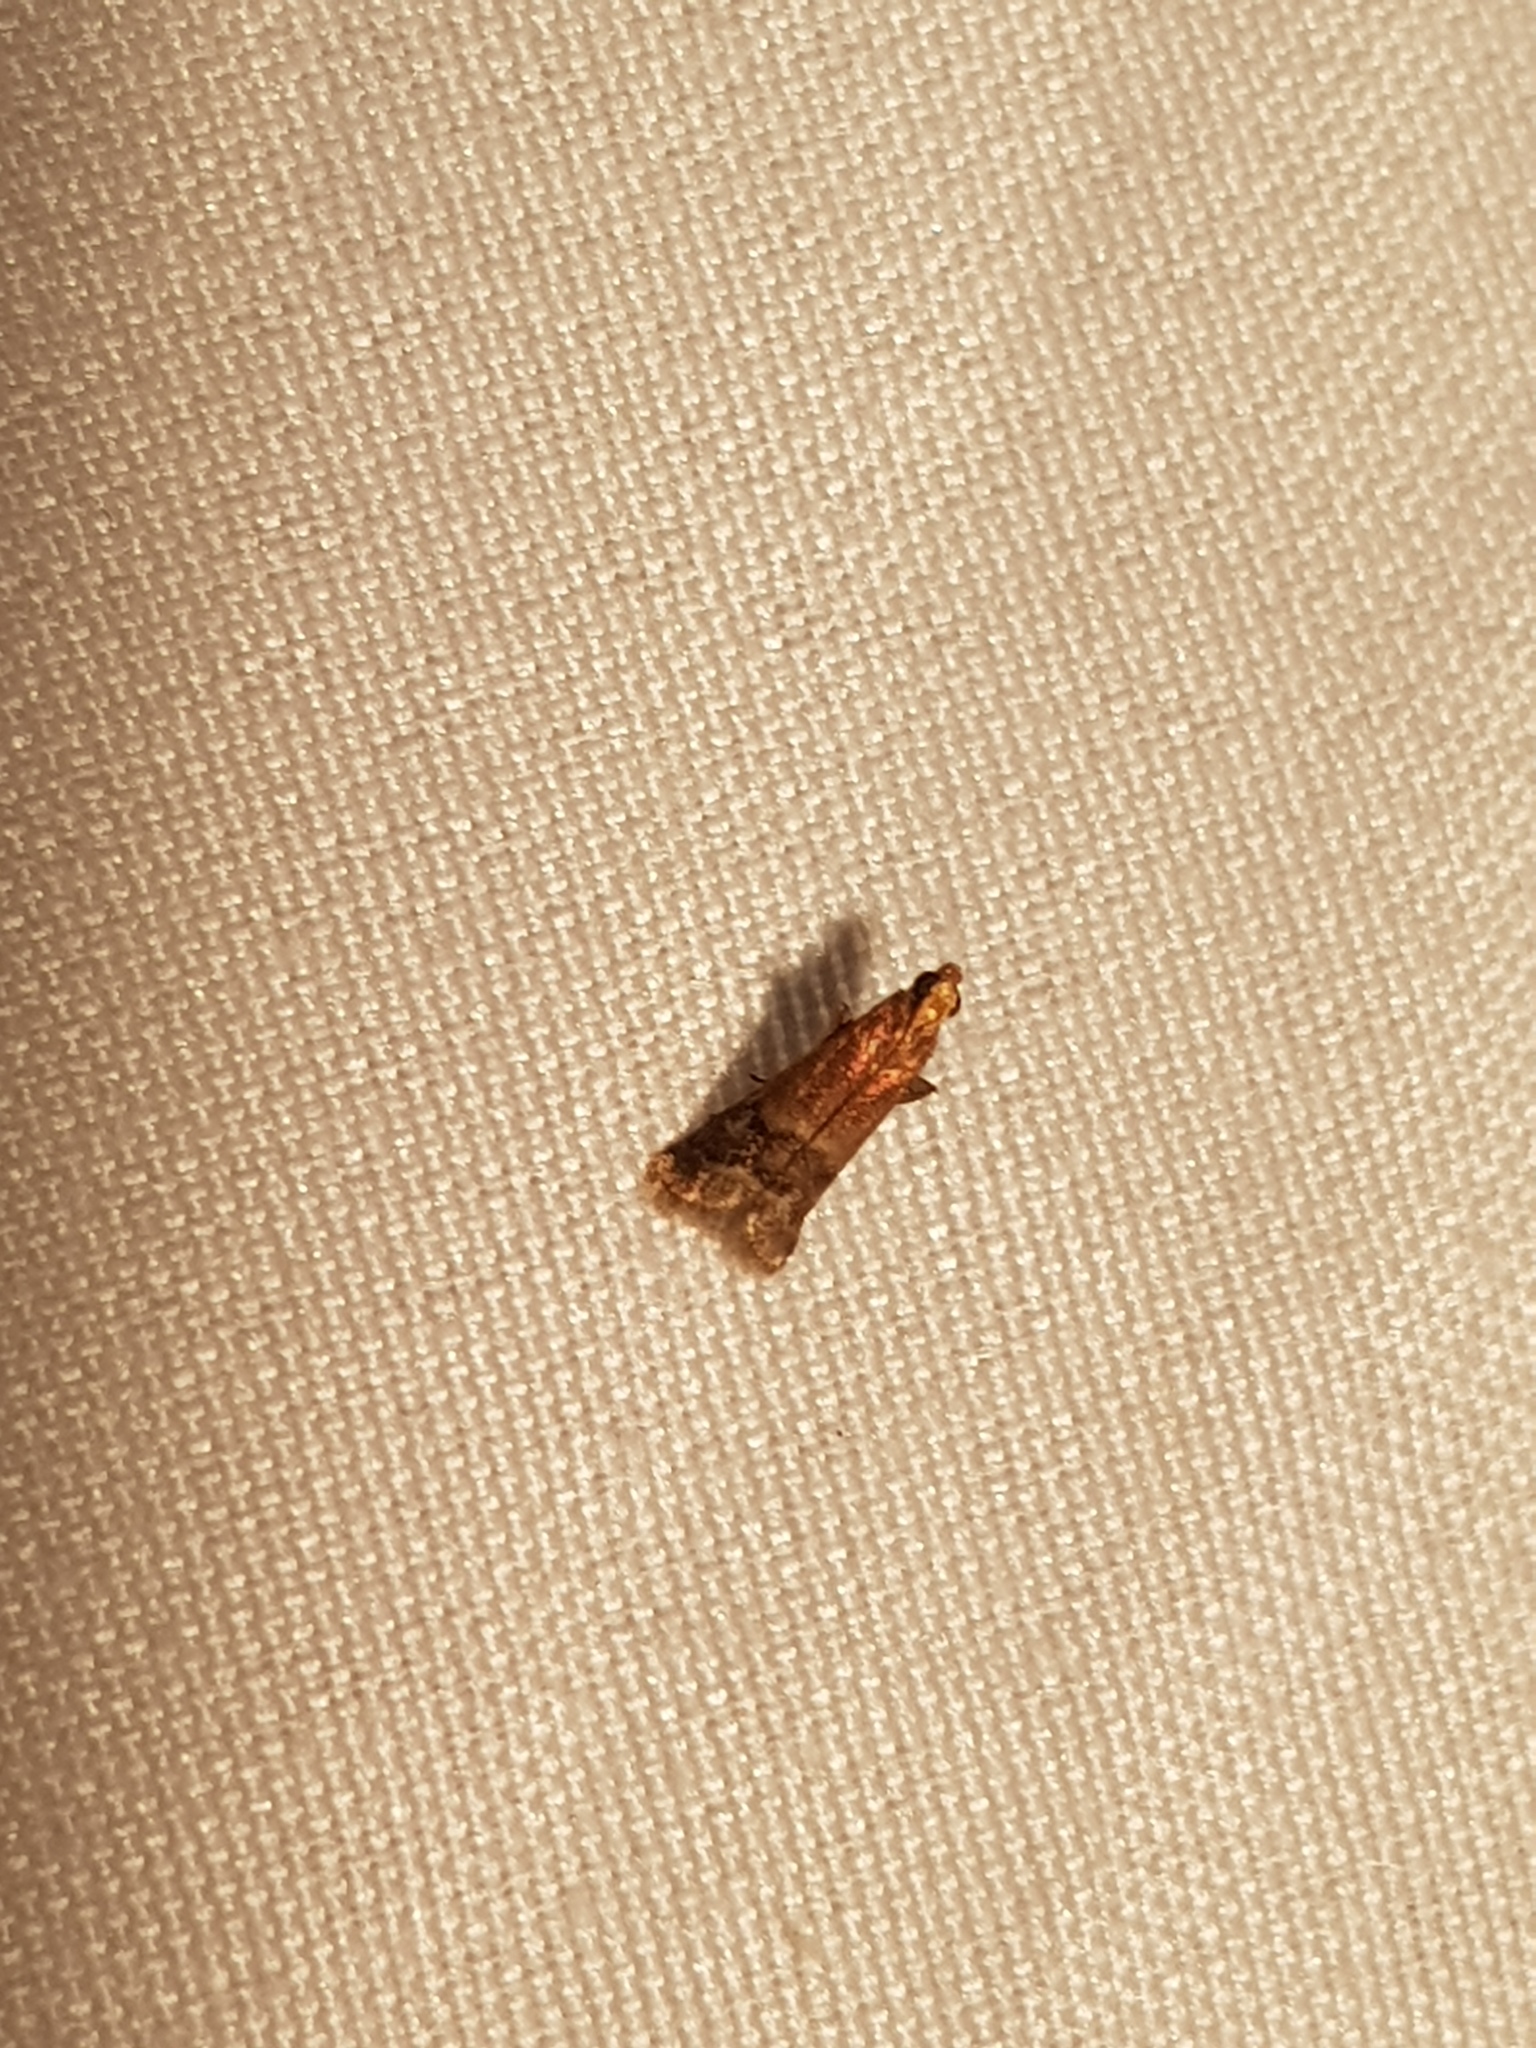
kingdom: Animalia
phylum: Arthropoda
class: Insecta
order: Lepidoptera
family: Pyralidae
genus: Eulogia
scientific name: Eulogia ochrifrontella
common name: Broad-banded eulogia moth
